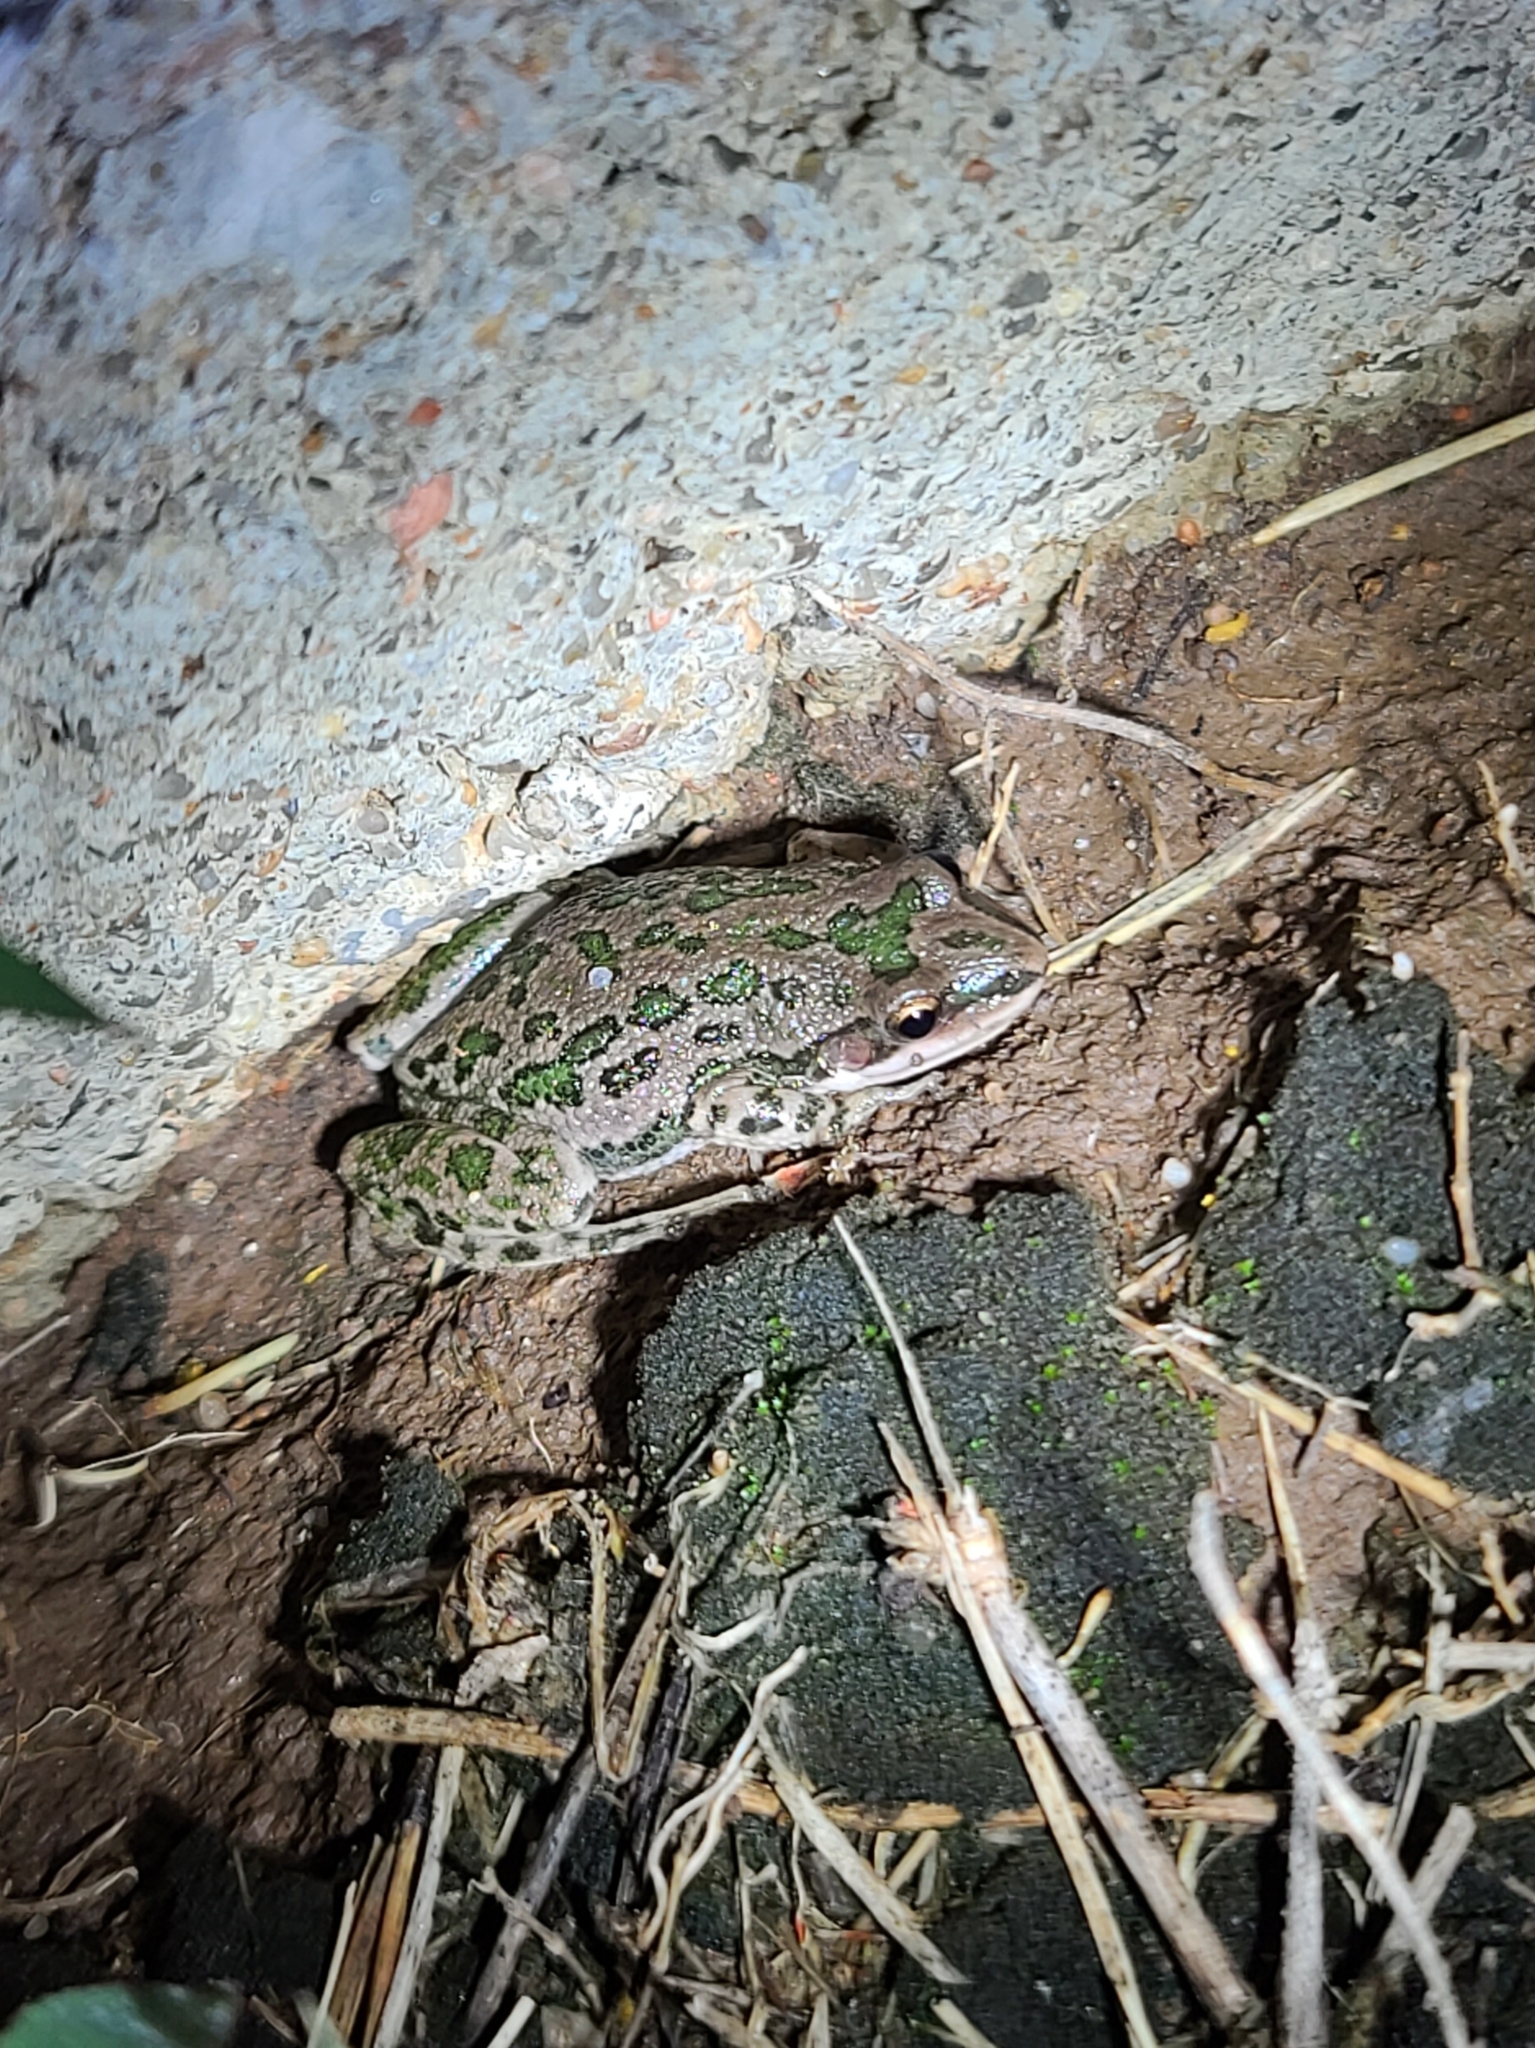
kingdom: Animalia
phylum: Chordata
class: Amphibia
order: Anura
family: Hylidae
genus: Pseudacris
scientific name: Pseudacris clarkii
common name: Spotted chorus frog
